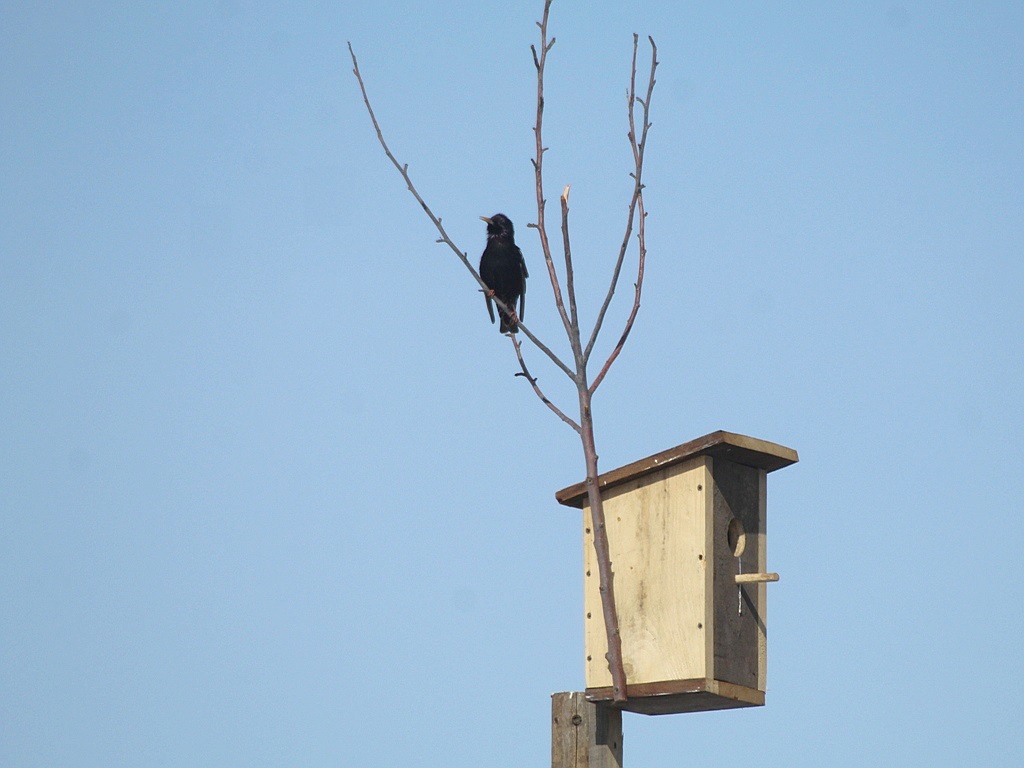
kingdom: Animalia
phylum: Chordata
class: Aves
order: Passeriformes
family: Sturnidae
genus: Sturnus
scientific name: Sturnus vulgaris
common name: Common starling
